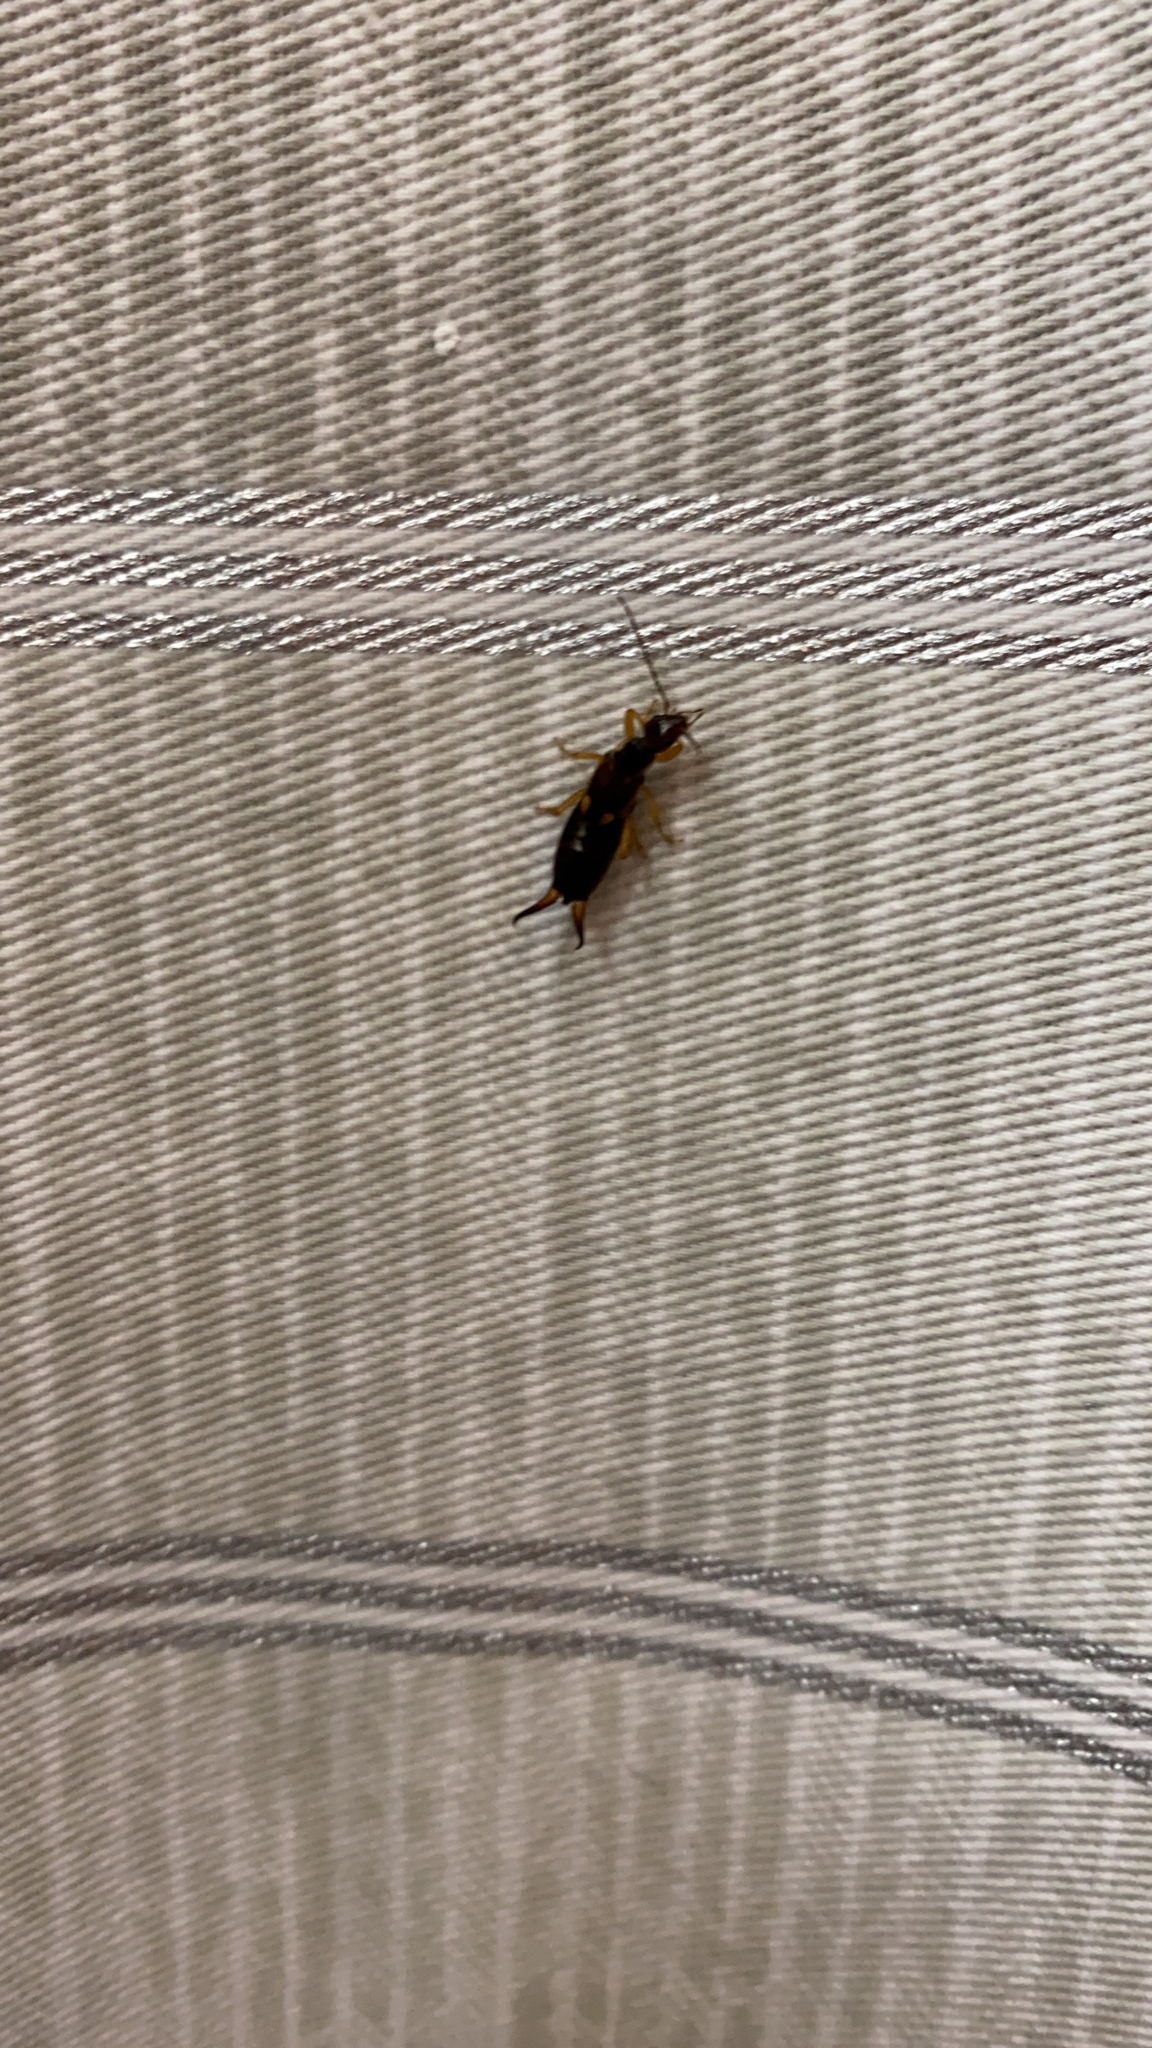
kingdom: Animalia
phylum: Arthropoda
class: Insecta
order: Dermaptera
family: Forficulidae
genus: Forficula
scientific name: Forficula
